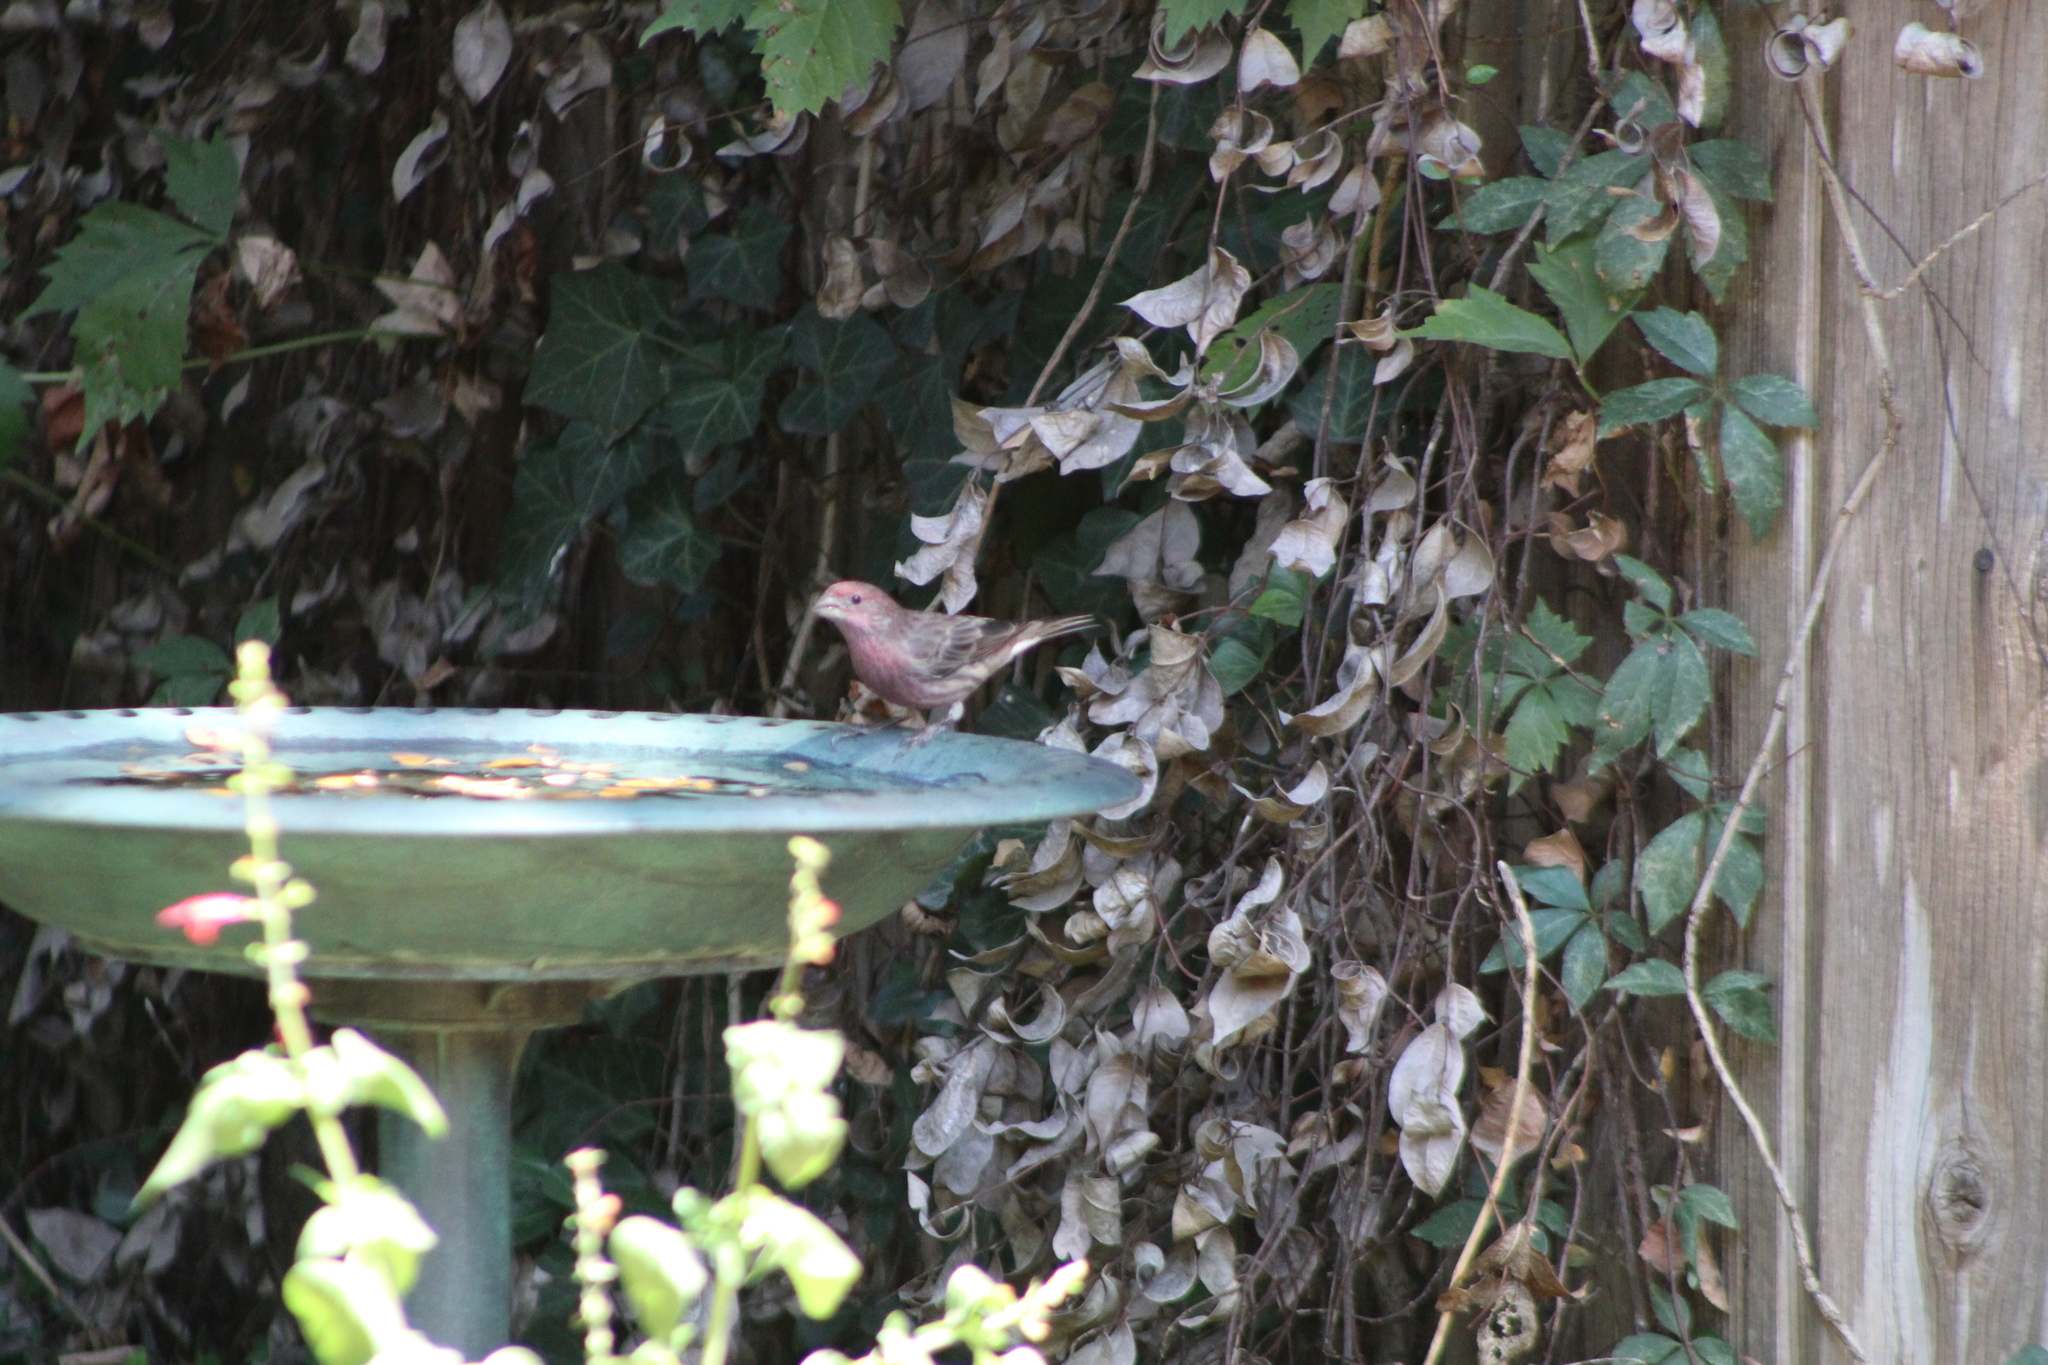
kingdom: Animalia
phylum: Chordata
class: Aves
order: Passeriformes
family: Fringillidae
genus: Haemorhous
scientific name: Haemorhous mexicanus
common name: House finch
